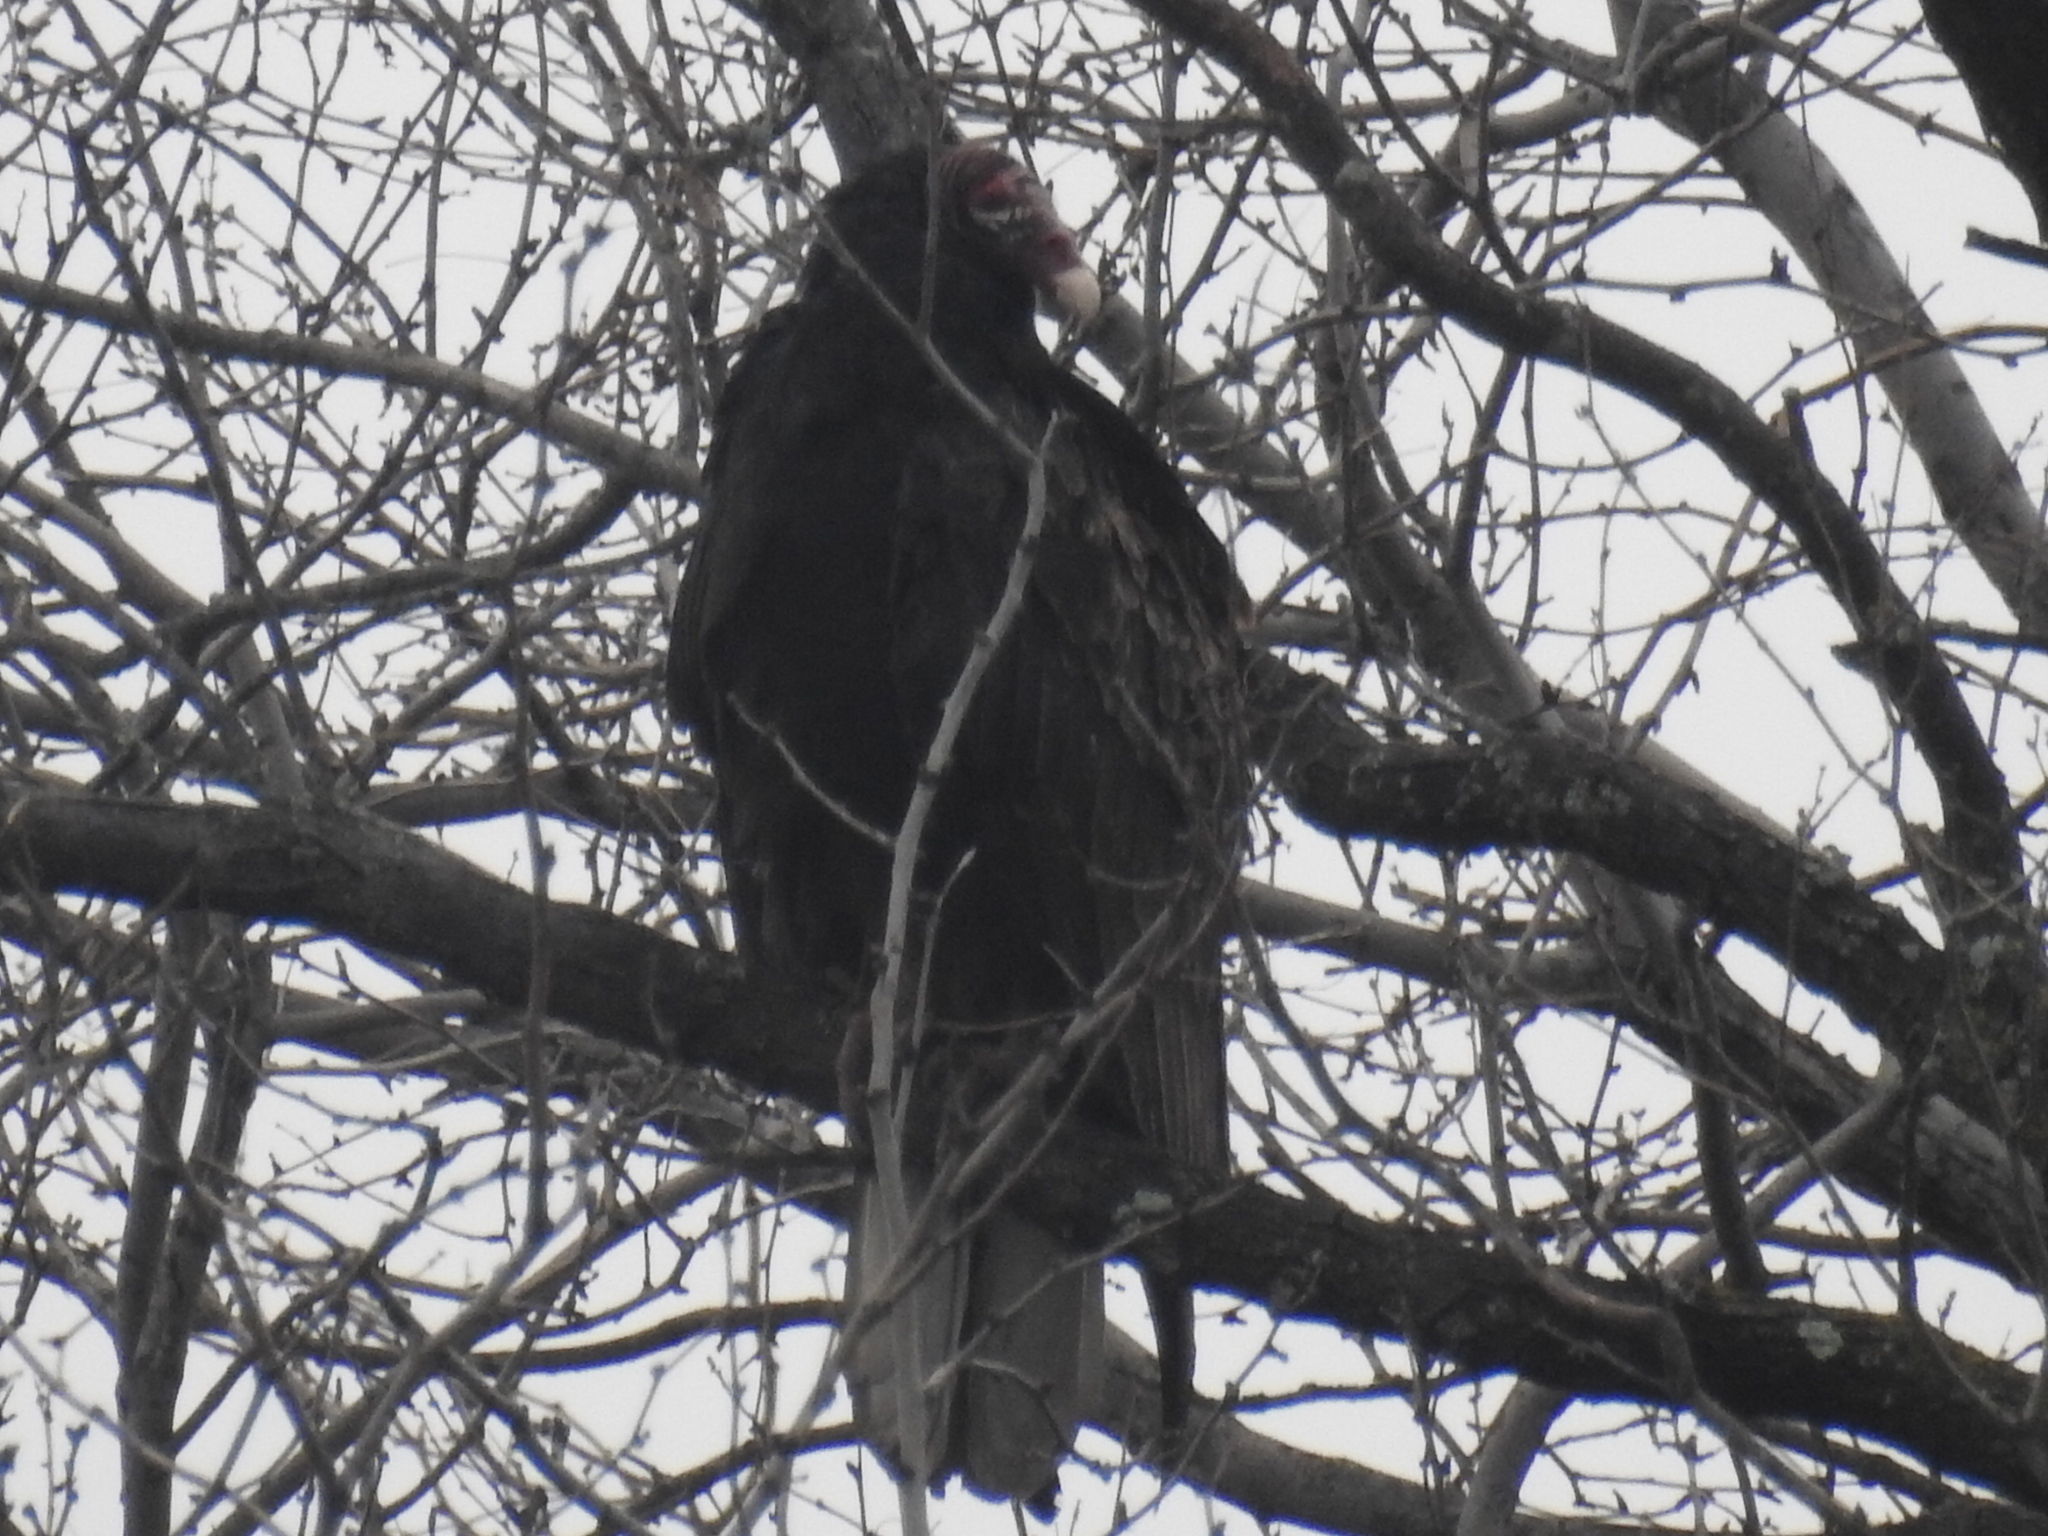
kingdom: Animalia
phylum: Chordata
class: Aves
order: Accipitriformes
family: Cathartidae
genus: Cathartes
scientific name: Cathartes aura
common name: Turkey vulture
